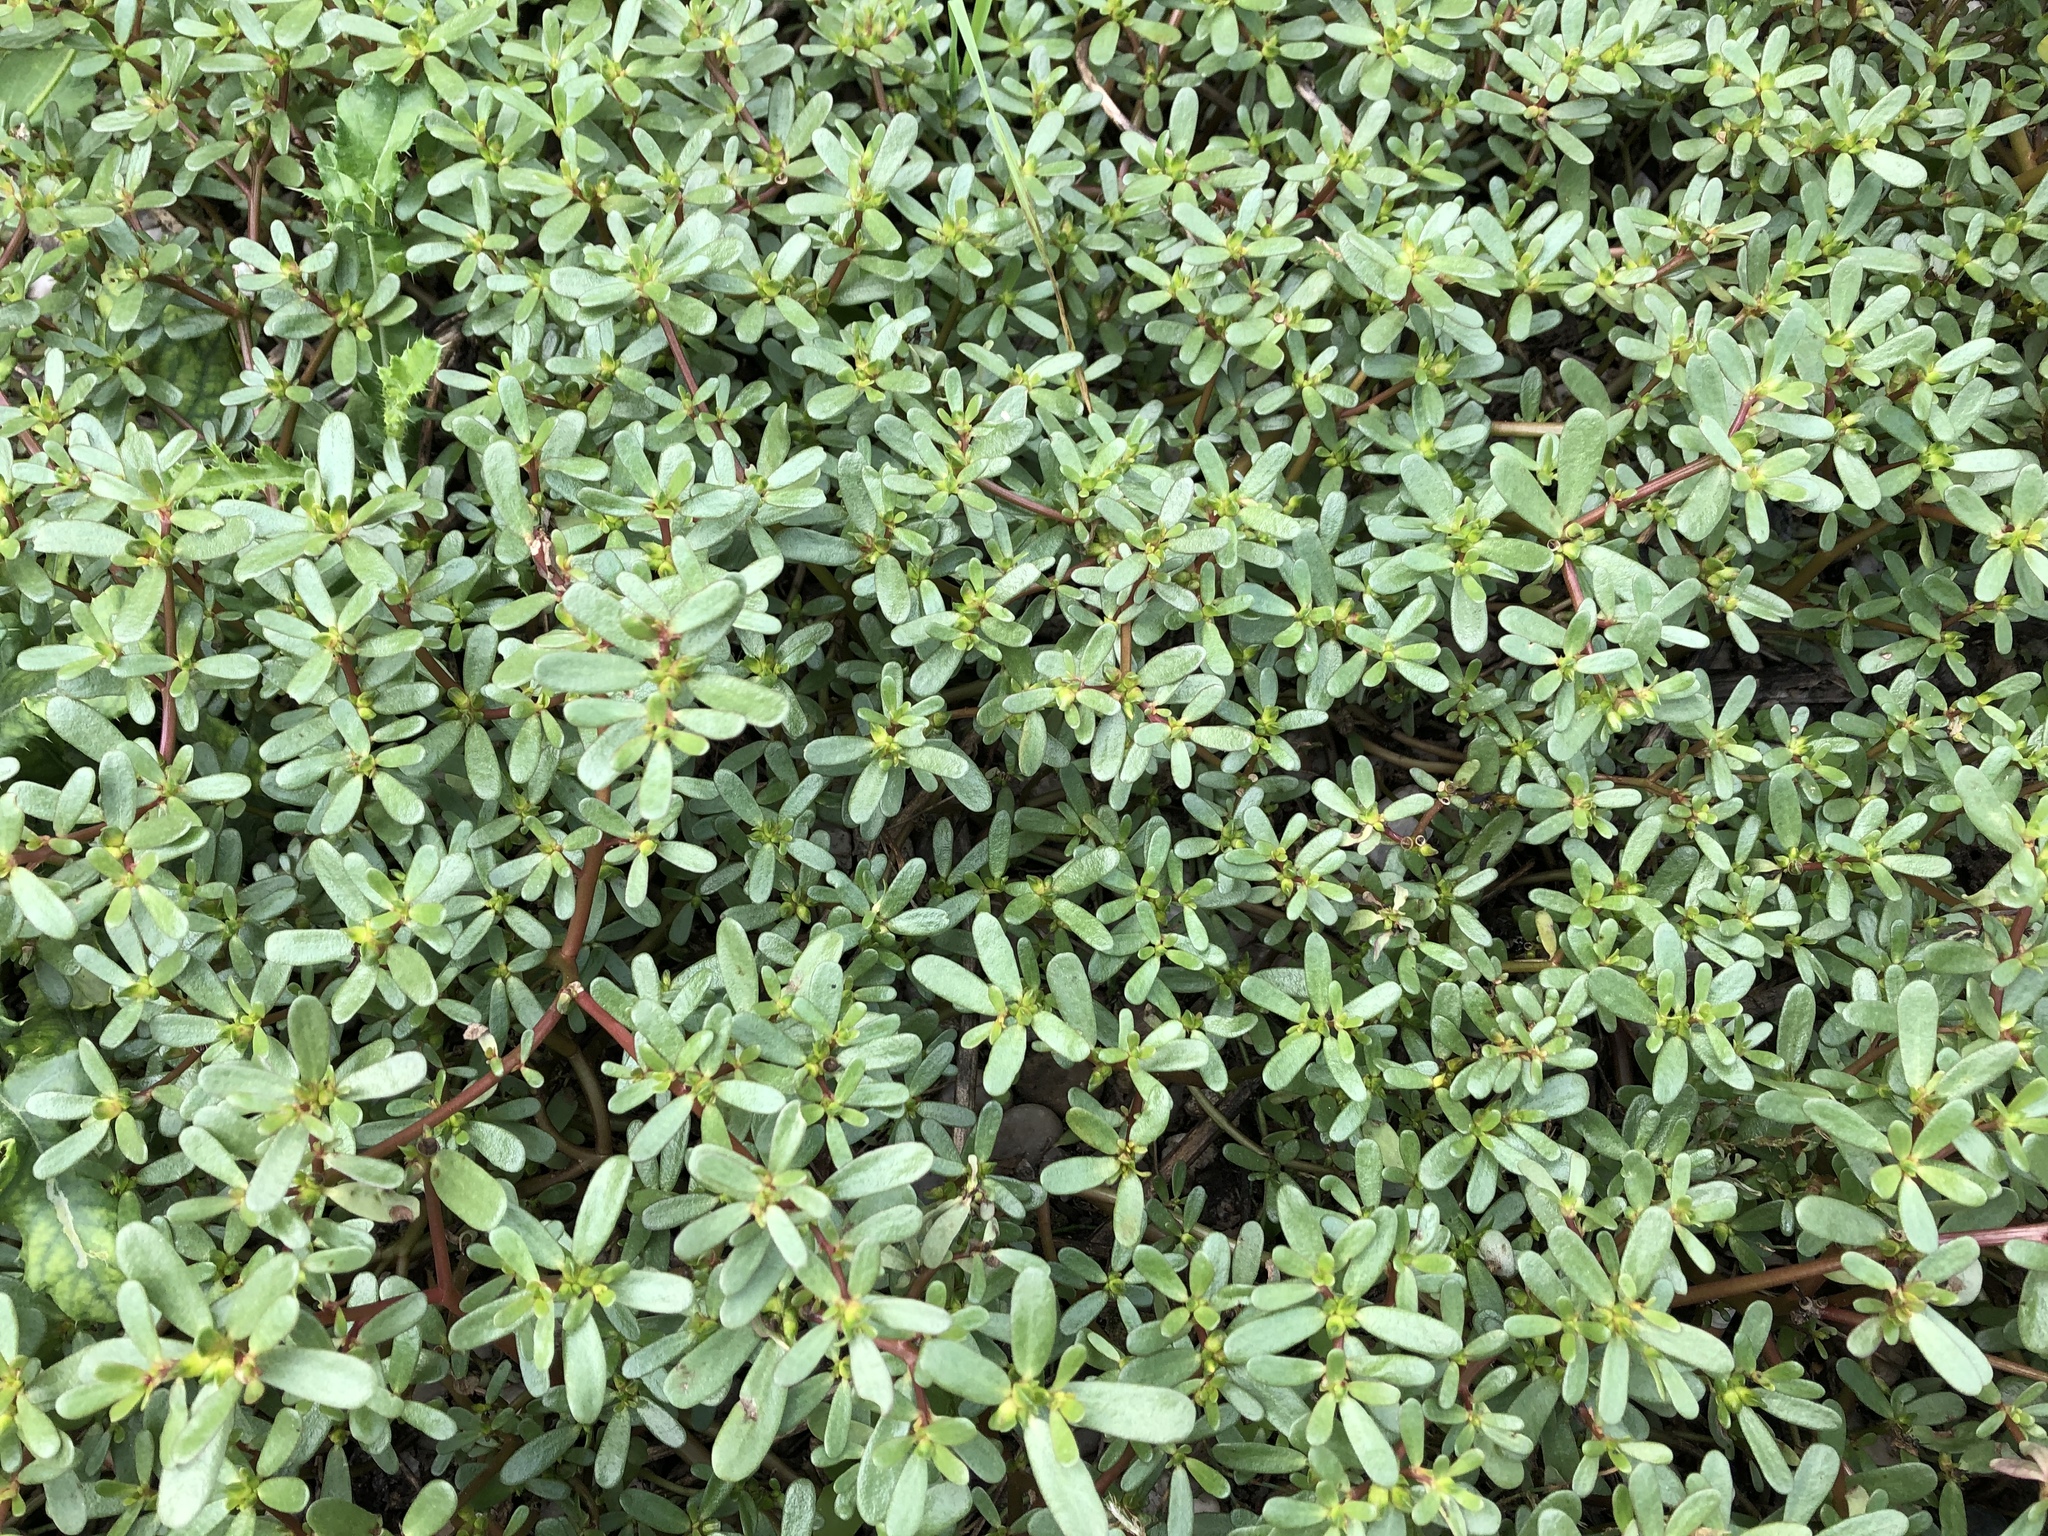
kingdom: Plantae
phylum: Tracheophyta
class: Magnoliopsida
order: Caryophyllales
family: Portulacaceae
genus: Portulaca
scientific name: Portulaca oleracea
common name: Common purslane
